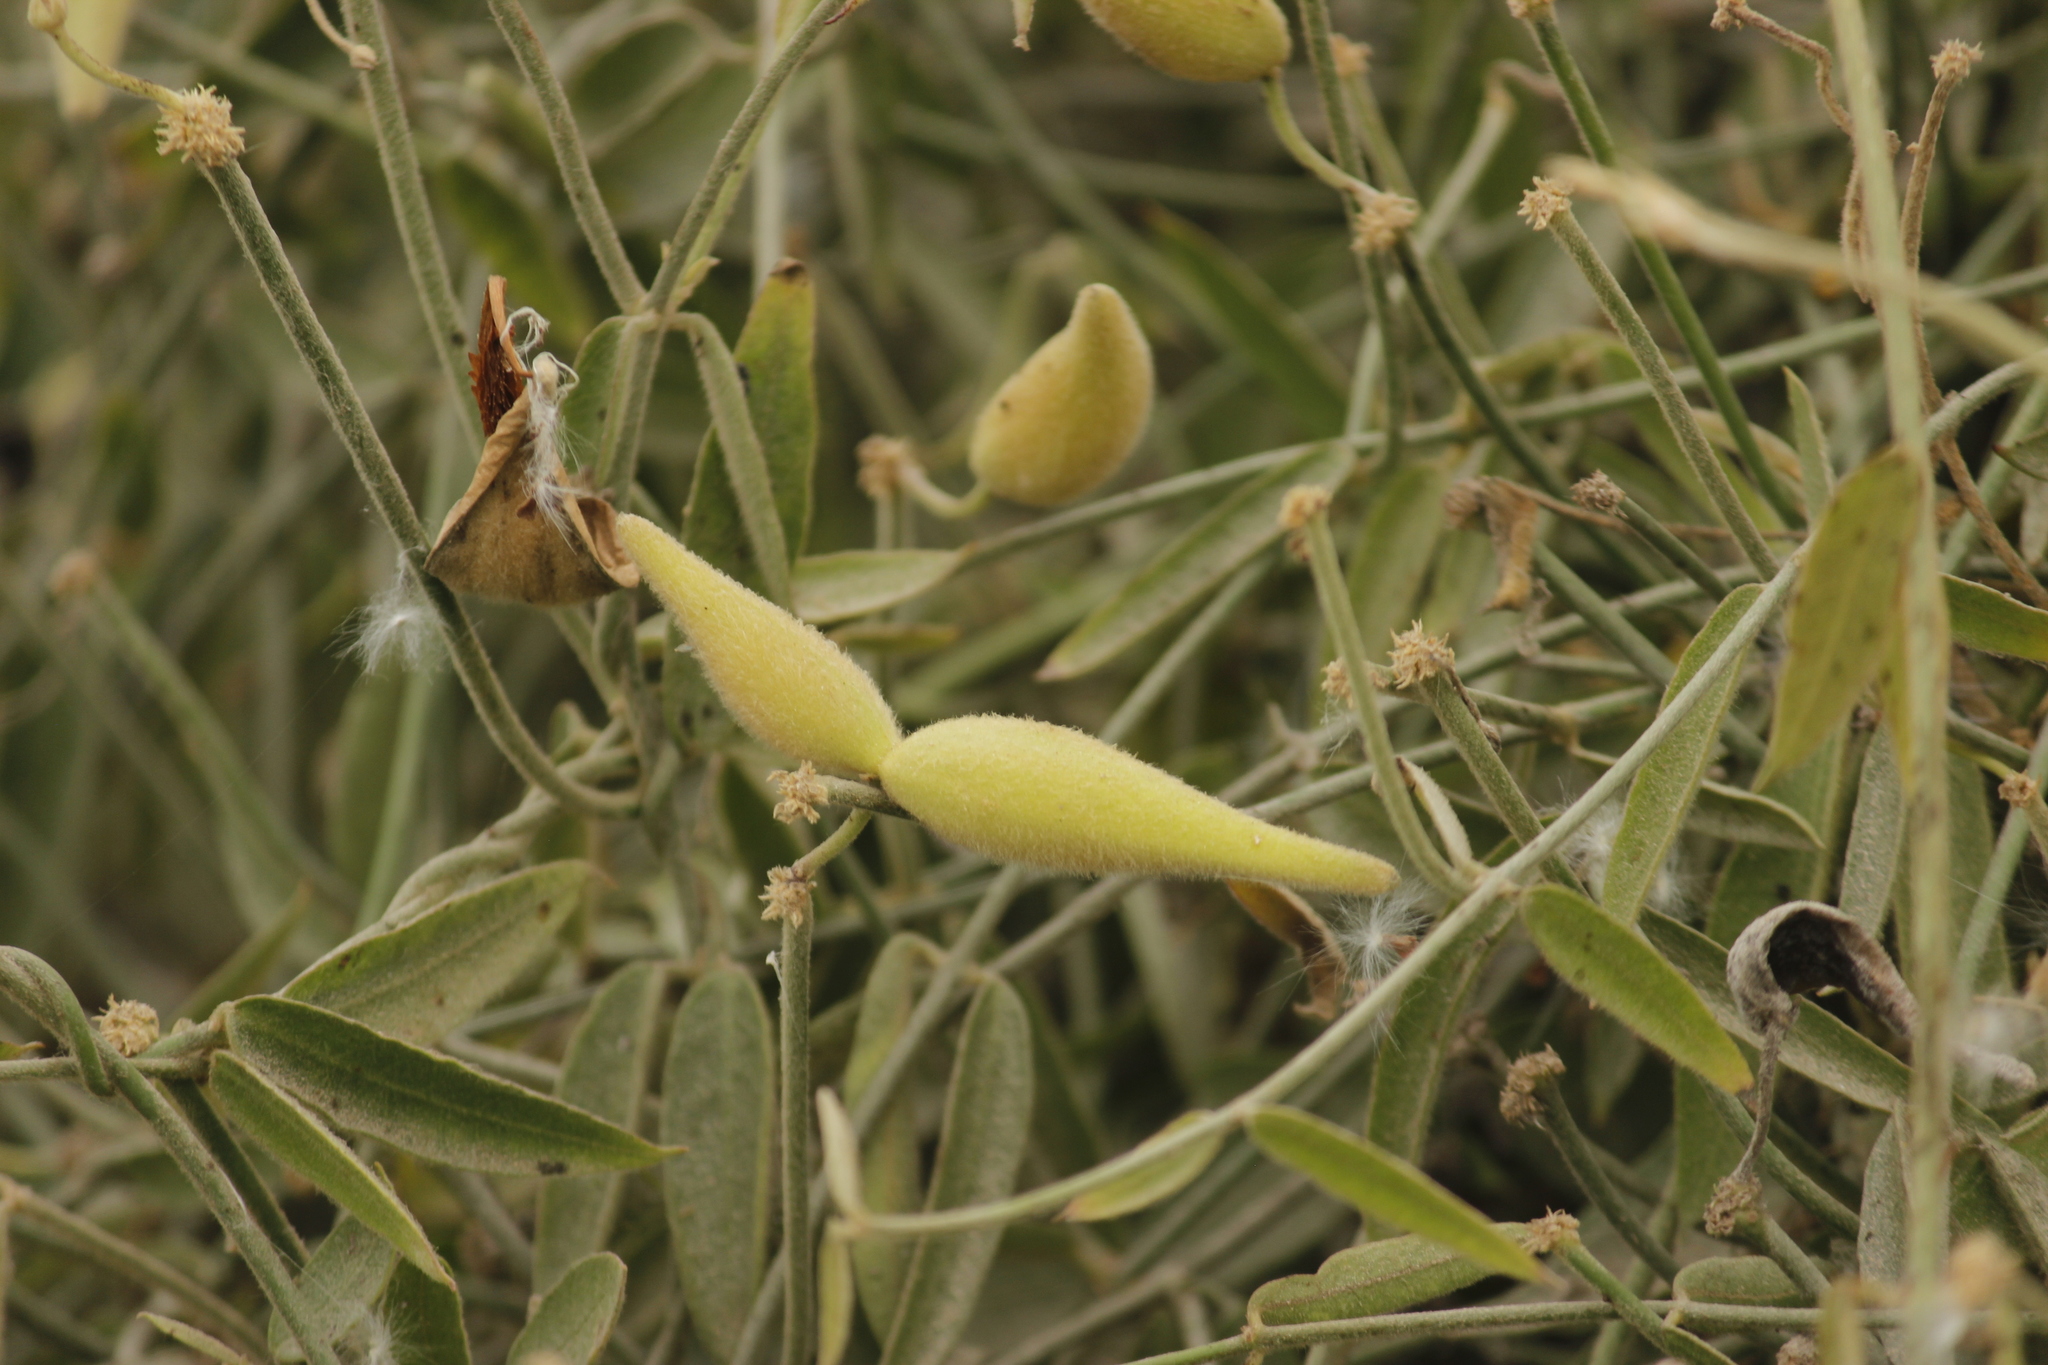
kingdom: Plantae
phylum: Tracheophyta
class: Magnoliopsida
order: Gentianales
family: Apocynaceae
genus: Funastrum
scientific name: Funastrum clausum
